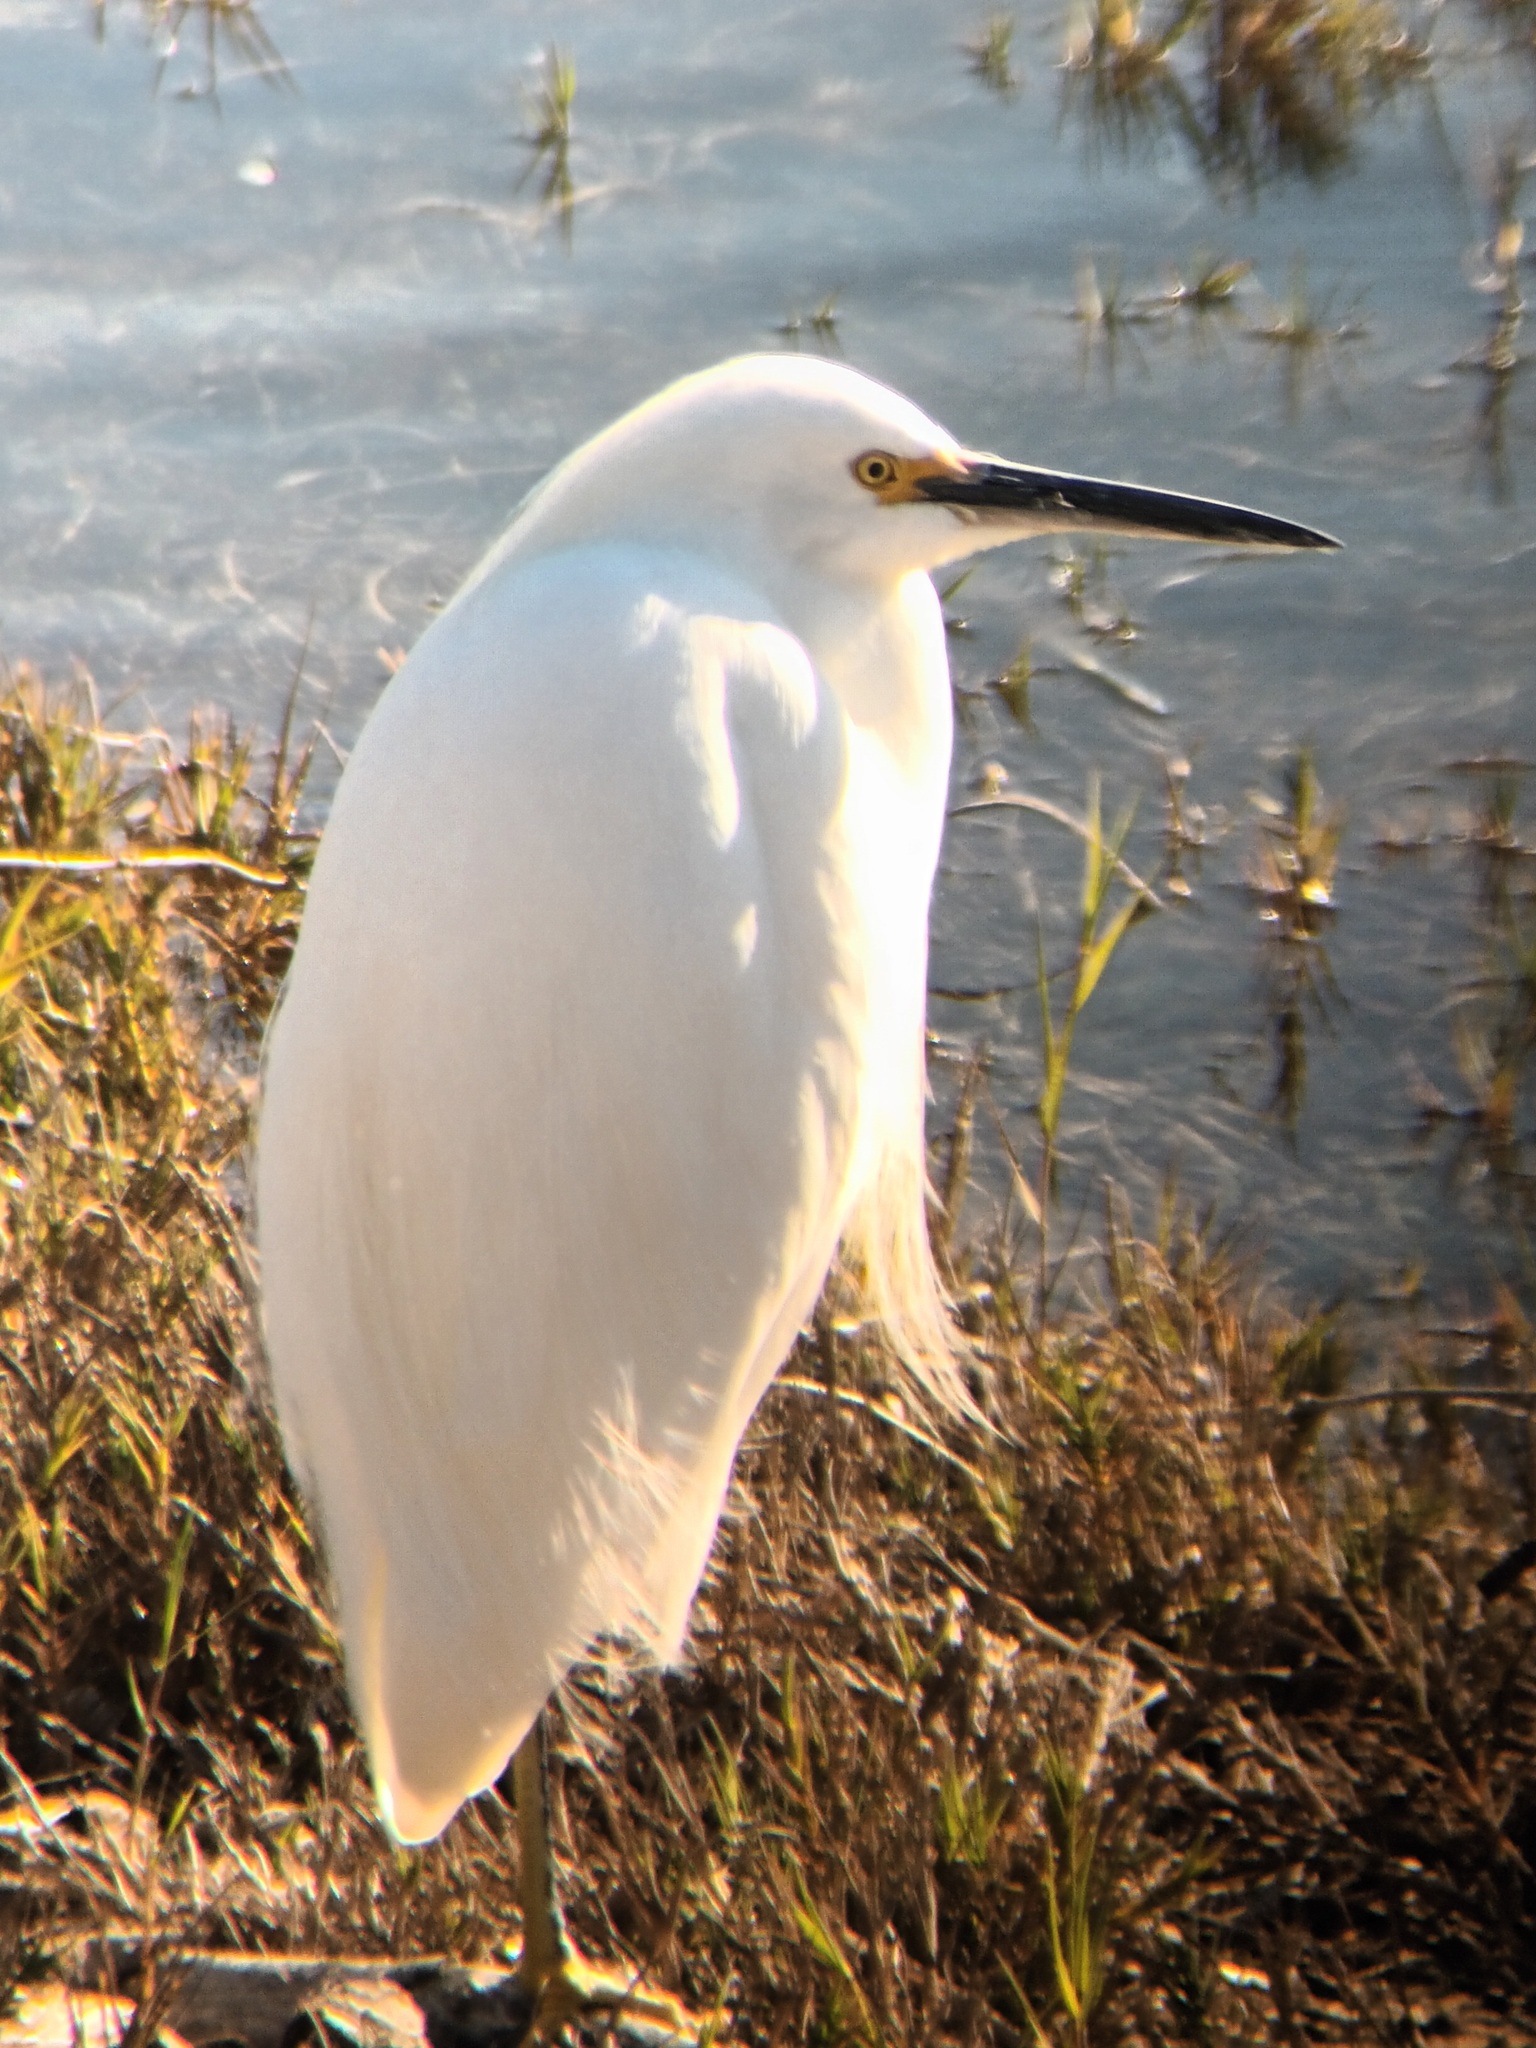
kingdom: Animalia
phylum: Chordata
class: Aves
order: Pelecaniformes
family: Ardeidae
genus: Egretta
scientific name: Egretta thula
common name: Snowy egret
